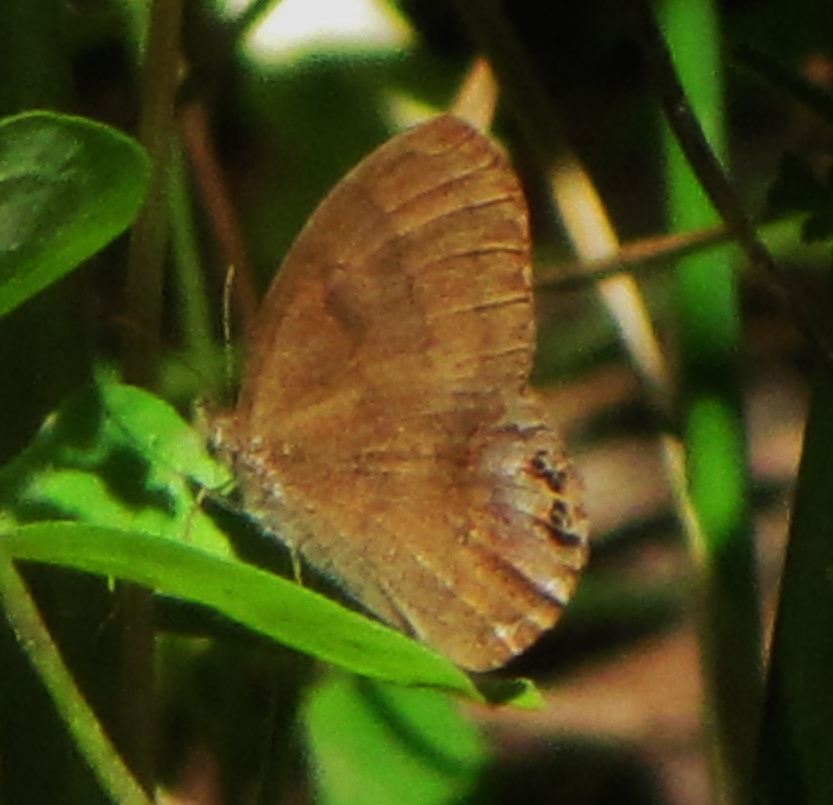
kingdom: Animalia
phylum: Arthropoda
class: Insecta
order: Lepidoptera
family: Nymphalidae
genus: Euptychia
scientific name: Euptychia cornelius
